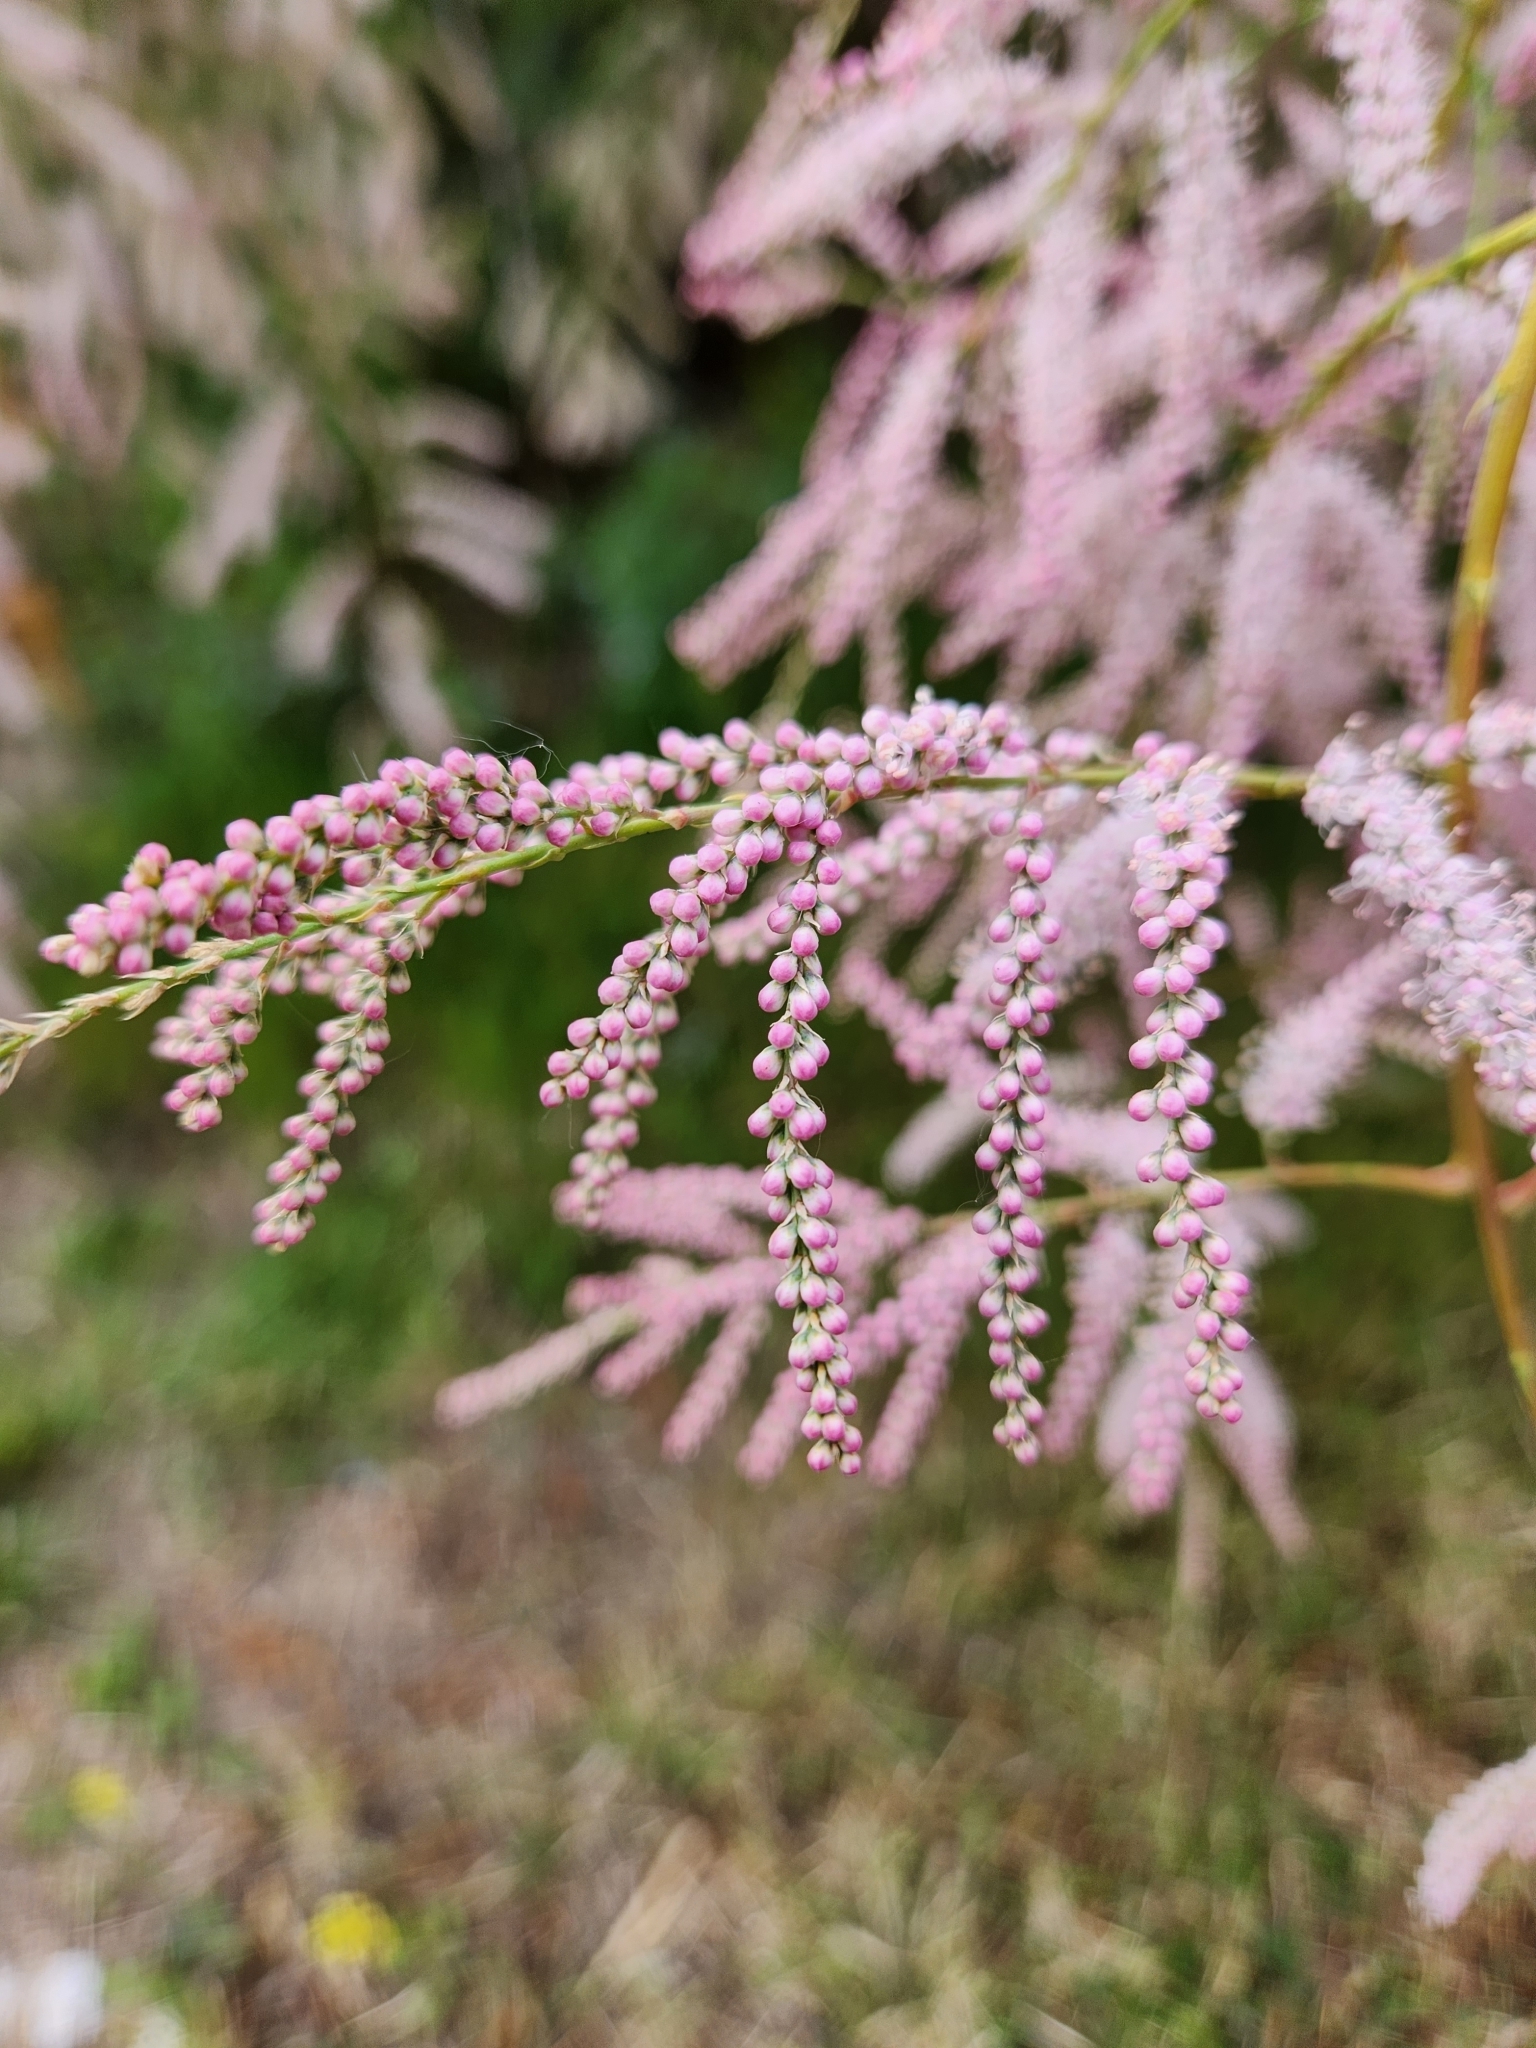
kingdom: Plantae
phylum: Tracheophyta
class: Magnoliopsida
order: Caryophyllales
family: Tamaricaceae
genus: Tamarix
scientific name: Tamarix ramosissima
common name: Pink tamarisk
